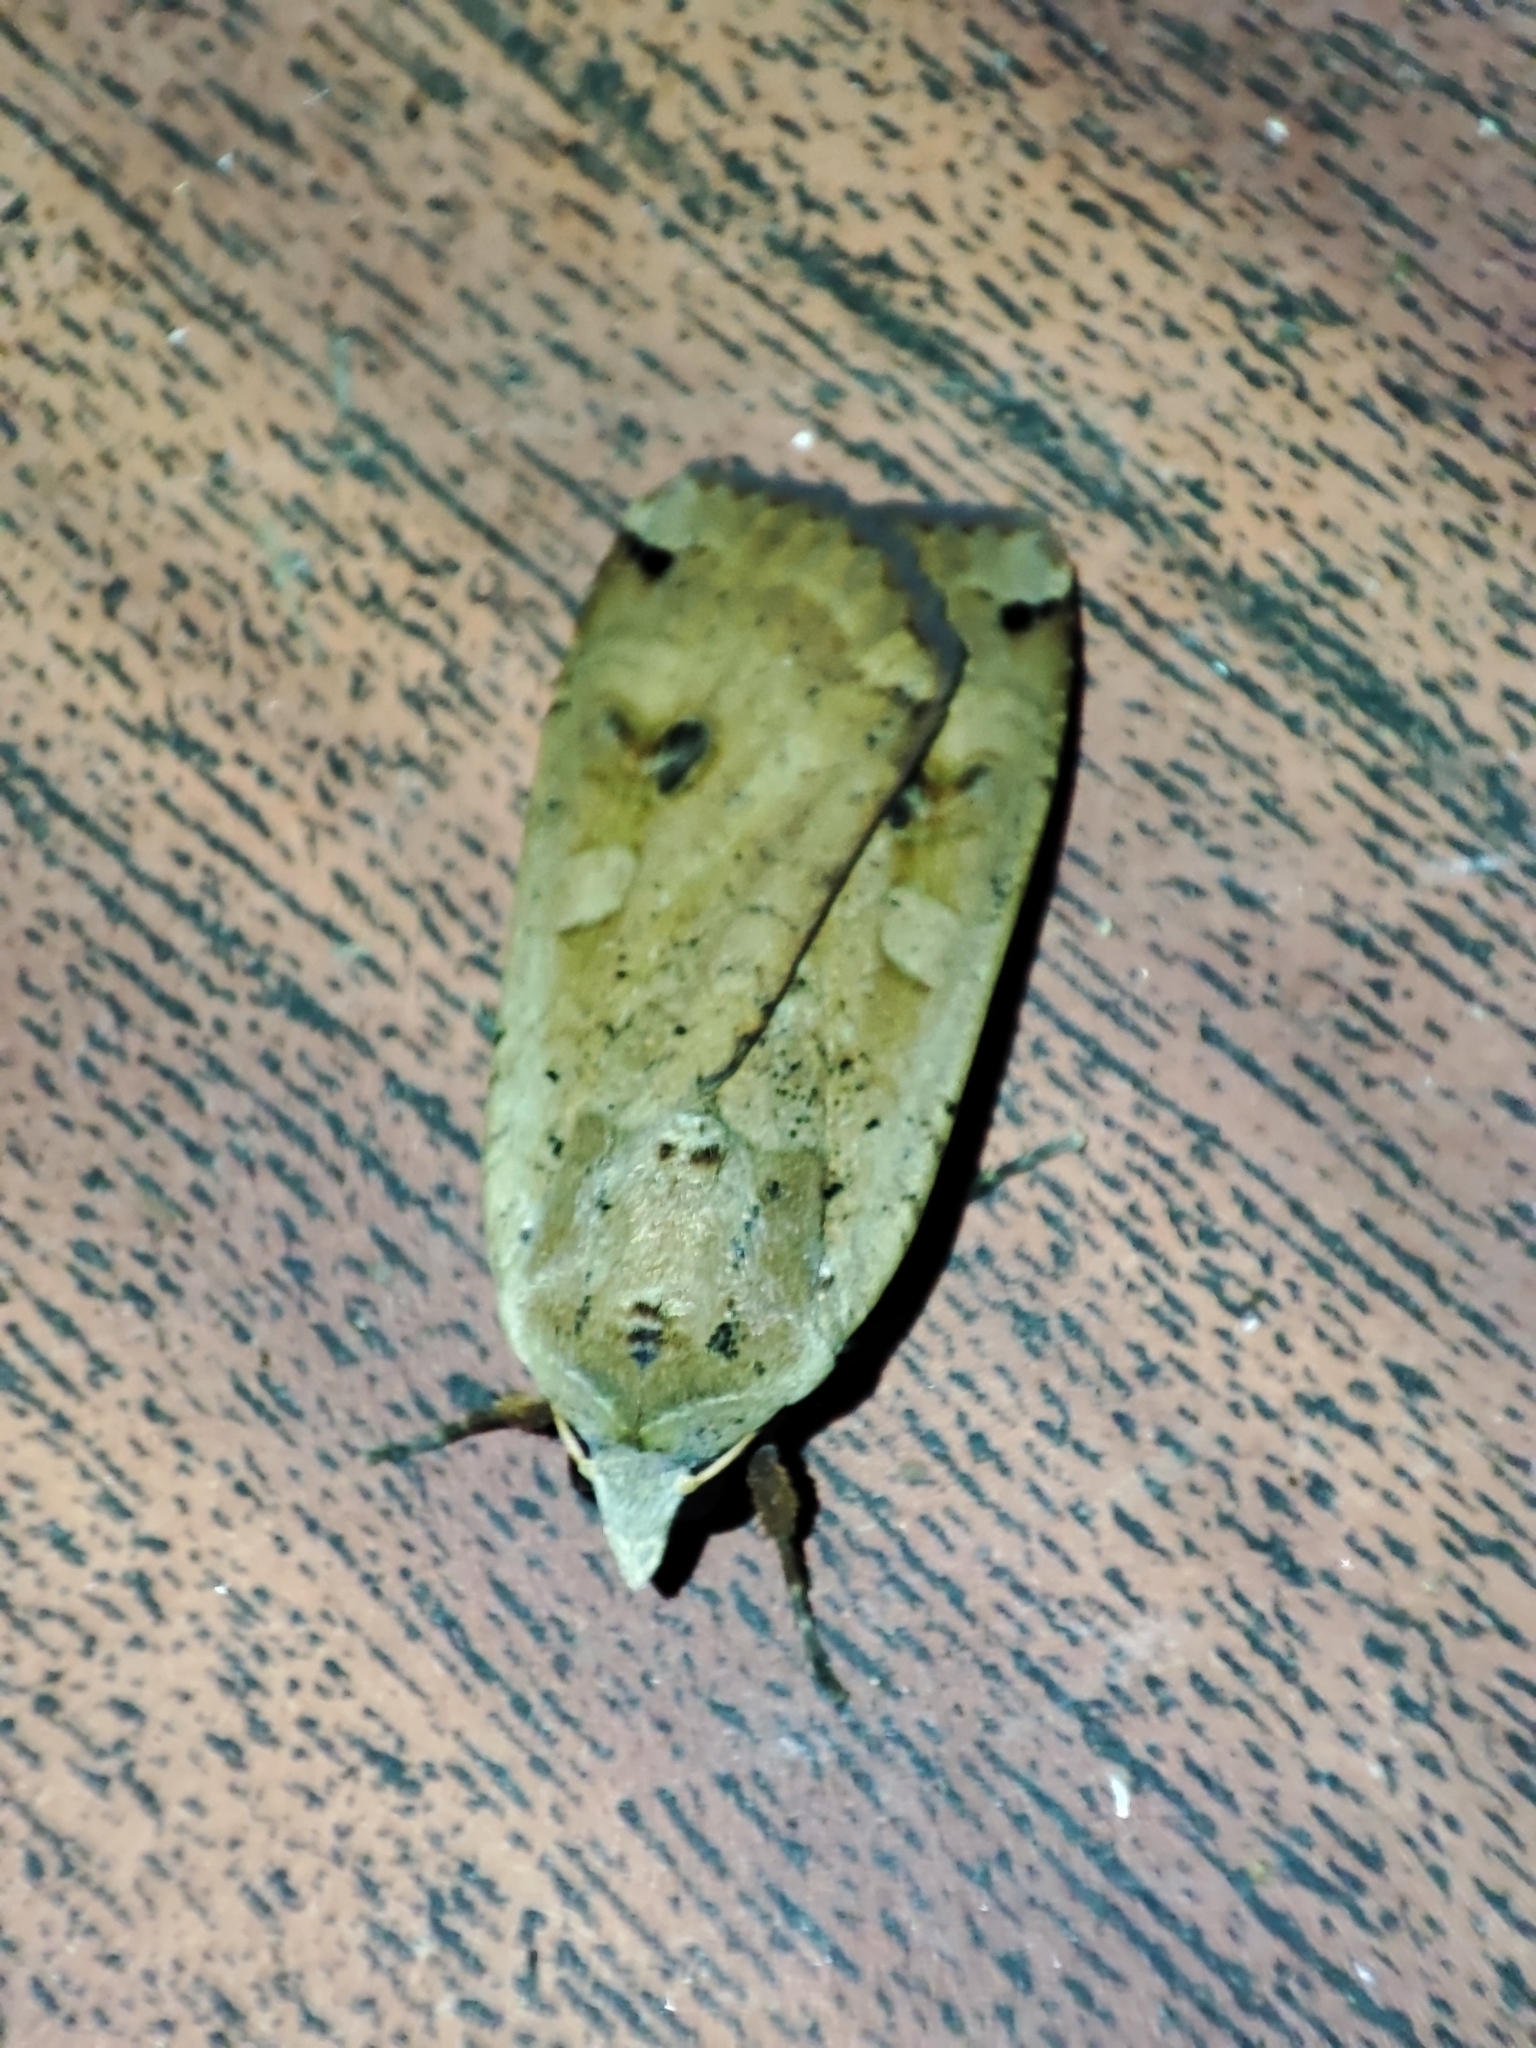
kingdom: Animalia
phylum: Arthropoda
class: Insecta
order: Lepidoptera
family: Noctuidae
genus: Noctua
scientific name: Noctua pronuba
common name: Large yellow underwing
